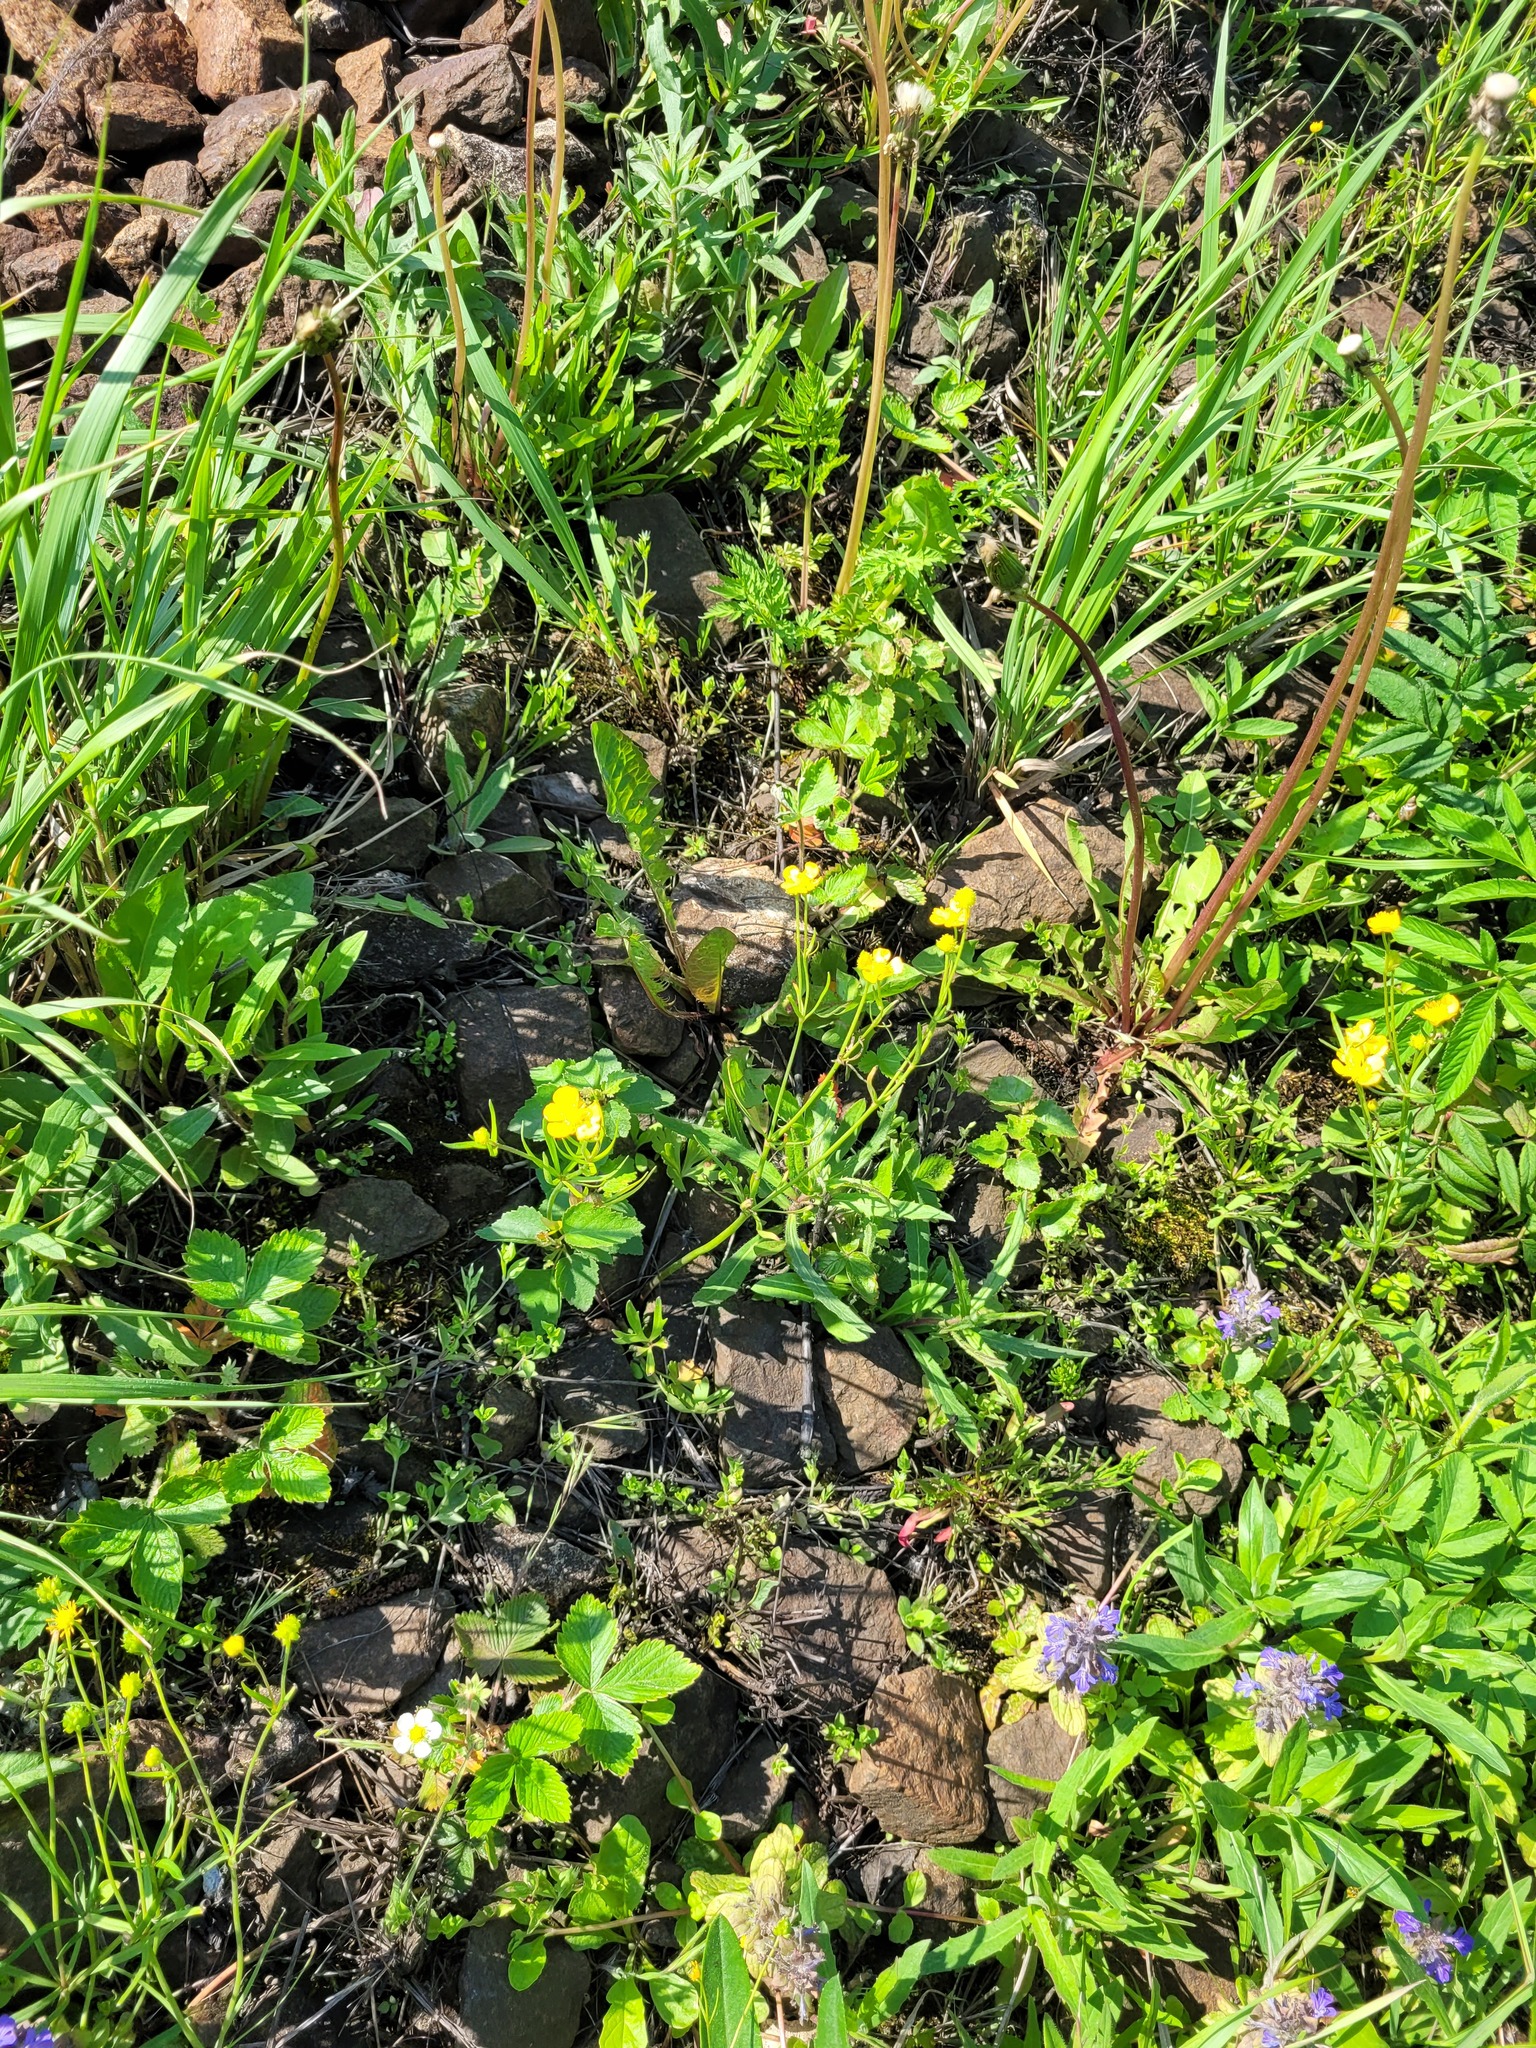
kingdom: Plantae
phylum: Tracheophyta
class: Magnoliopsida
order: Ranunculales
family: Ranunculaceae
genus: Ranunculus
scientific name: Ranunculus auricomus
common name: Goldilocks buttercup
